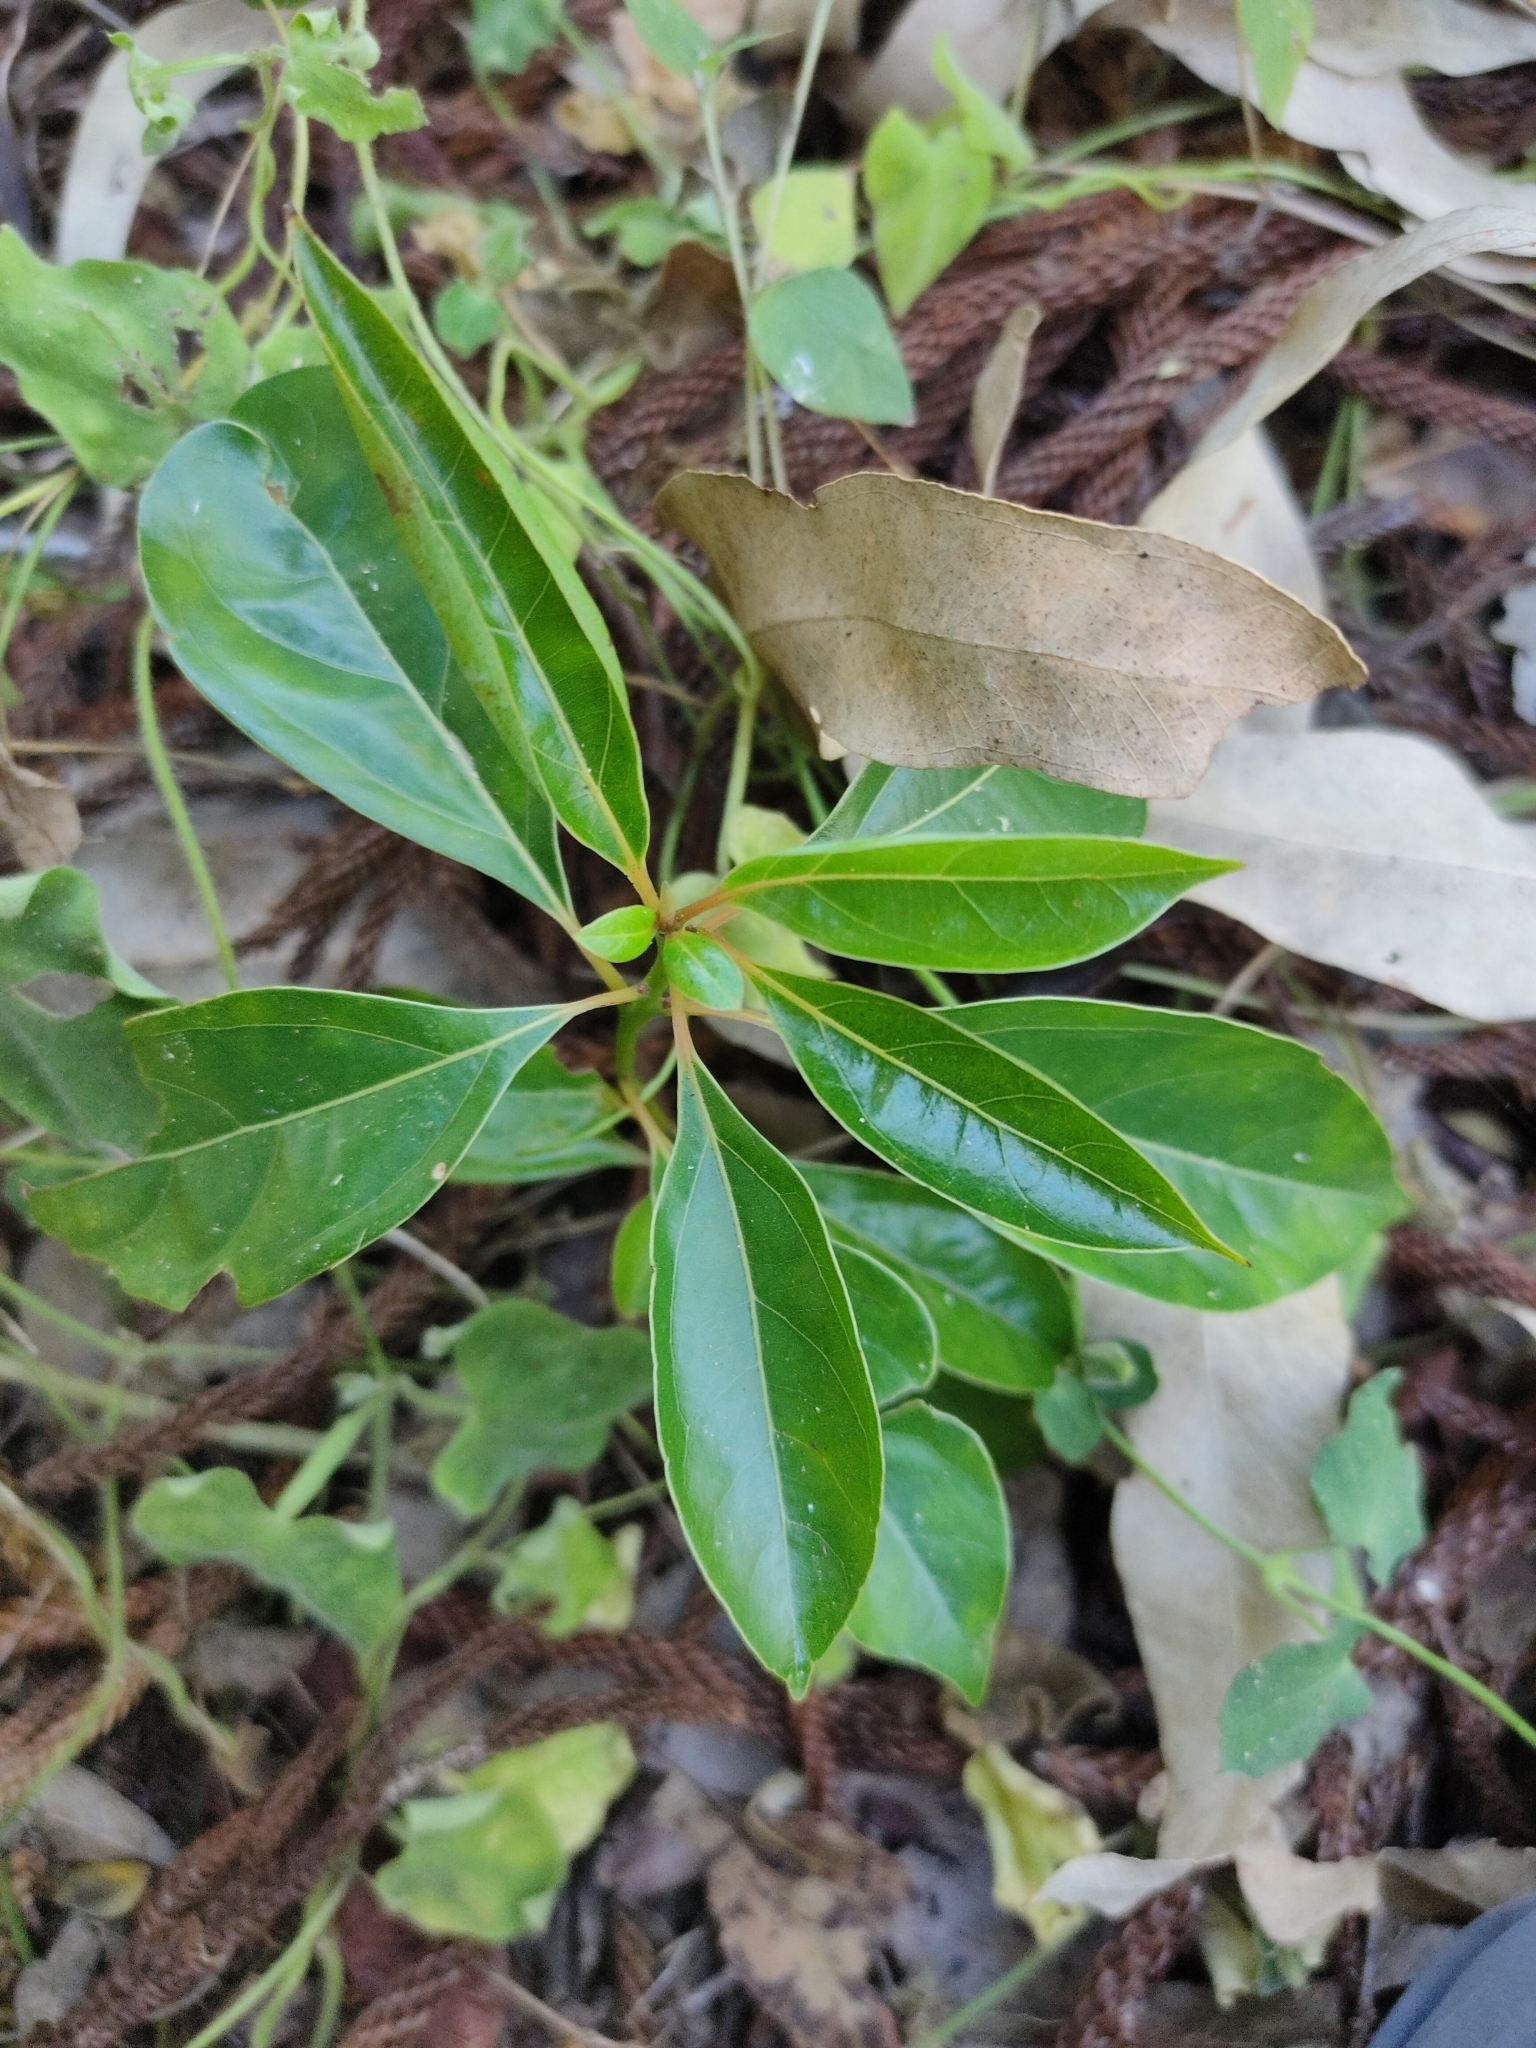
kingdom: Plantae
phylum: Tracheophyta
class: Magnoliopsida
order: Laurales
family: Lauraceae
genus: Cinnamomum
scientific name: Cinnamomum camphora
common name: Camphortree
